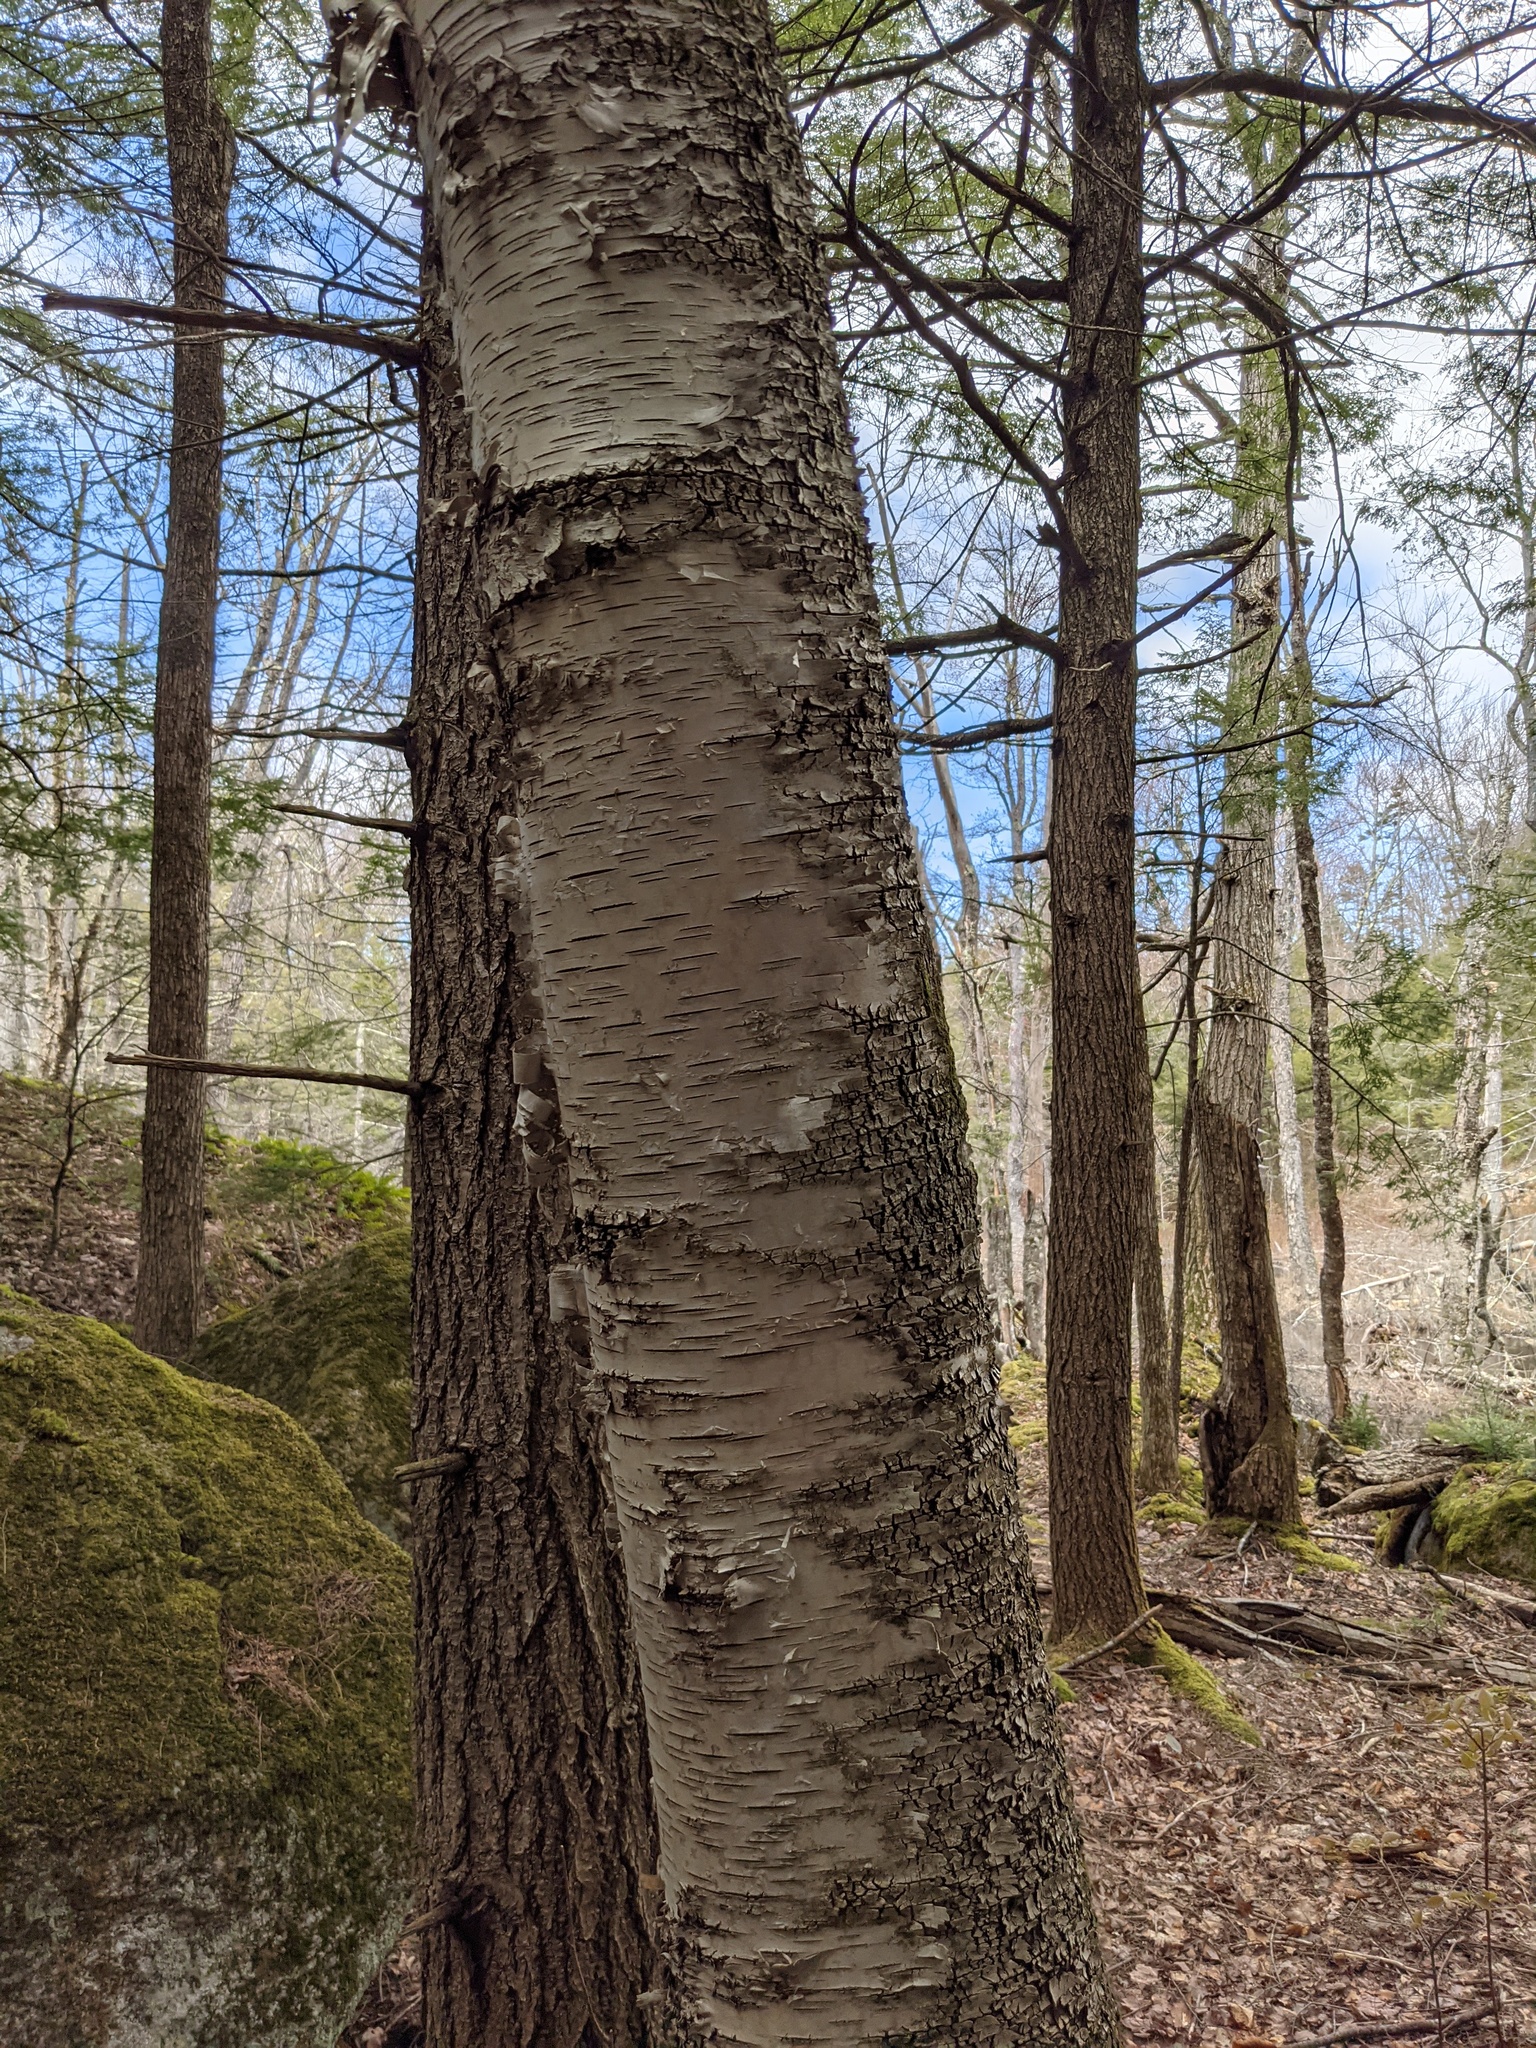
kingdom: Plantae
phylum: Tracheophyta
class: Magnoliopsida
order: Fagales
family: Betulaceae
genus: Betula
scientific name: Betula papyrifera
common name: Paper birch
